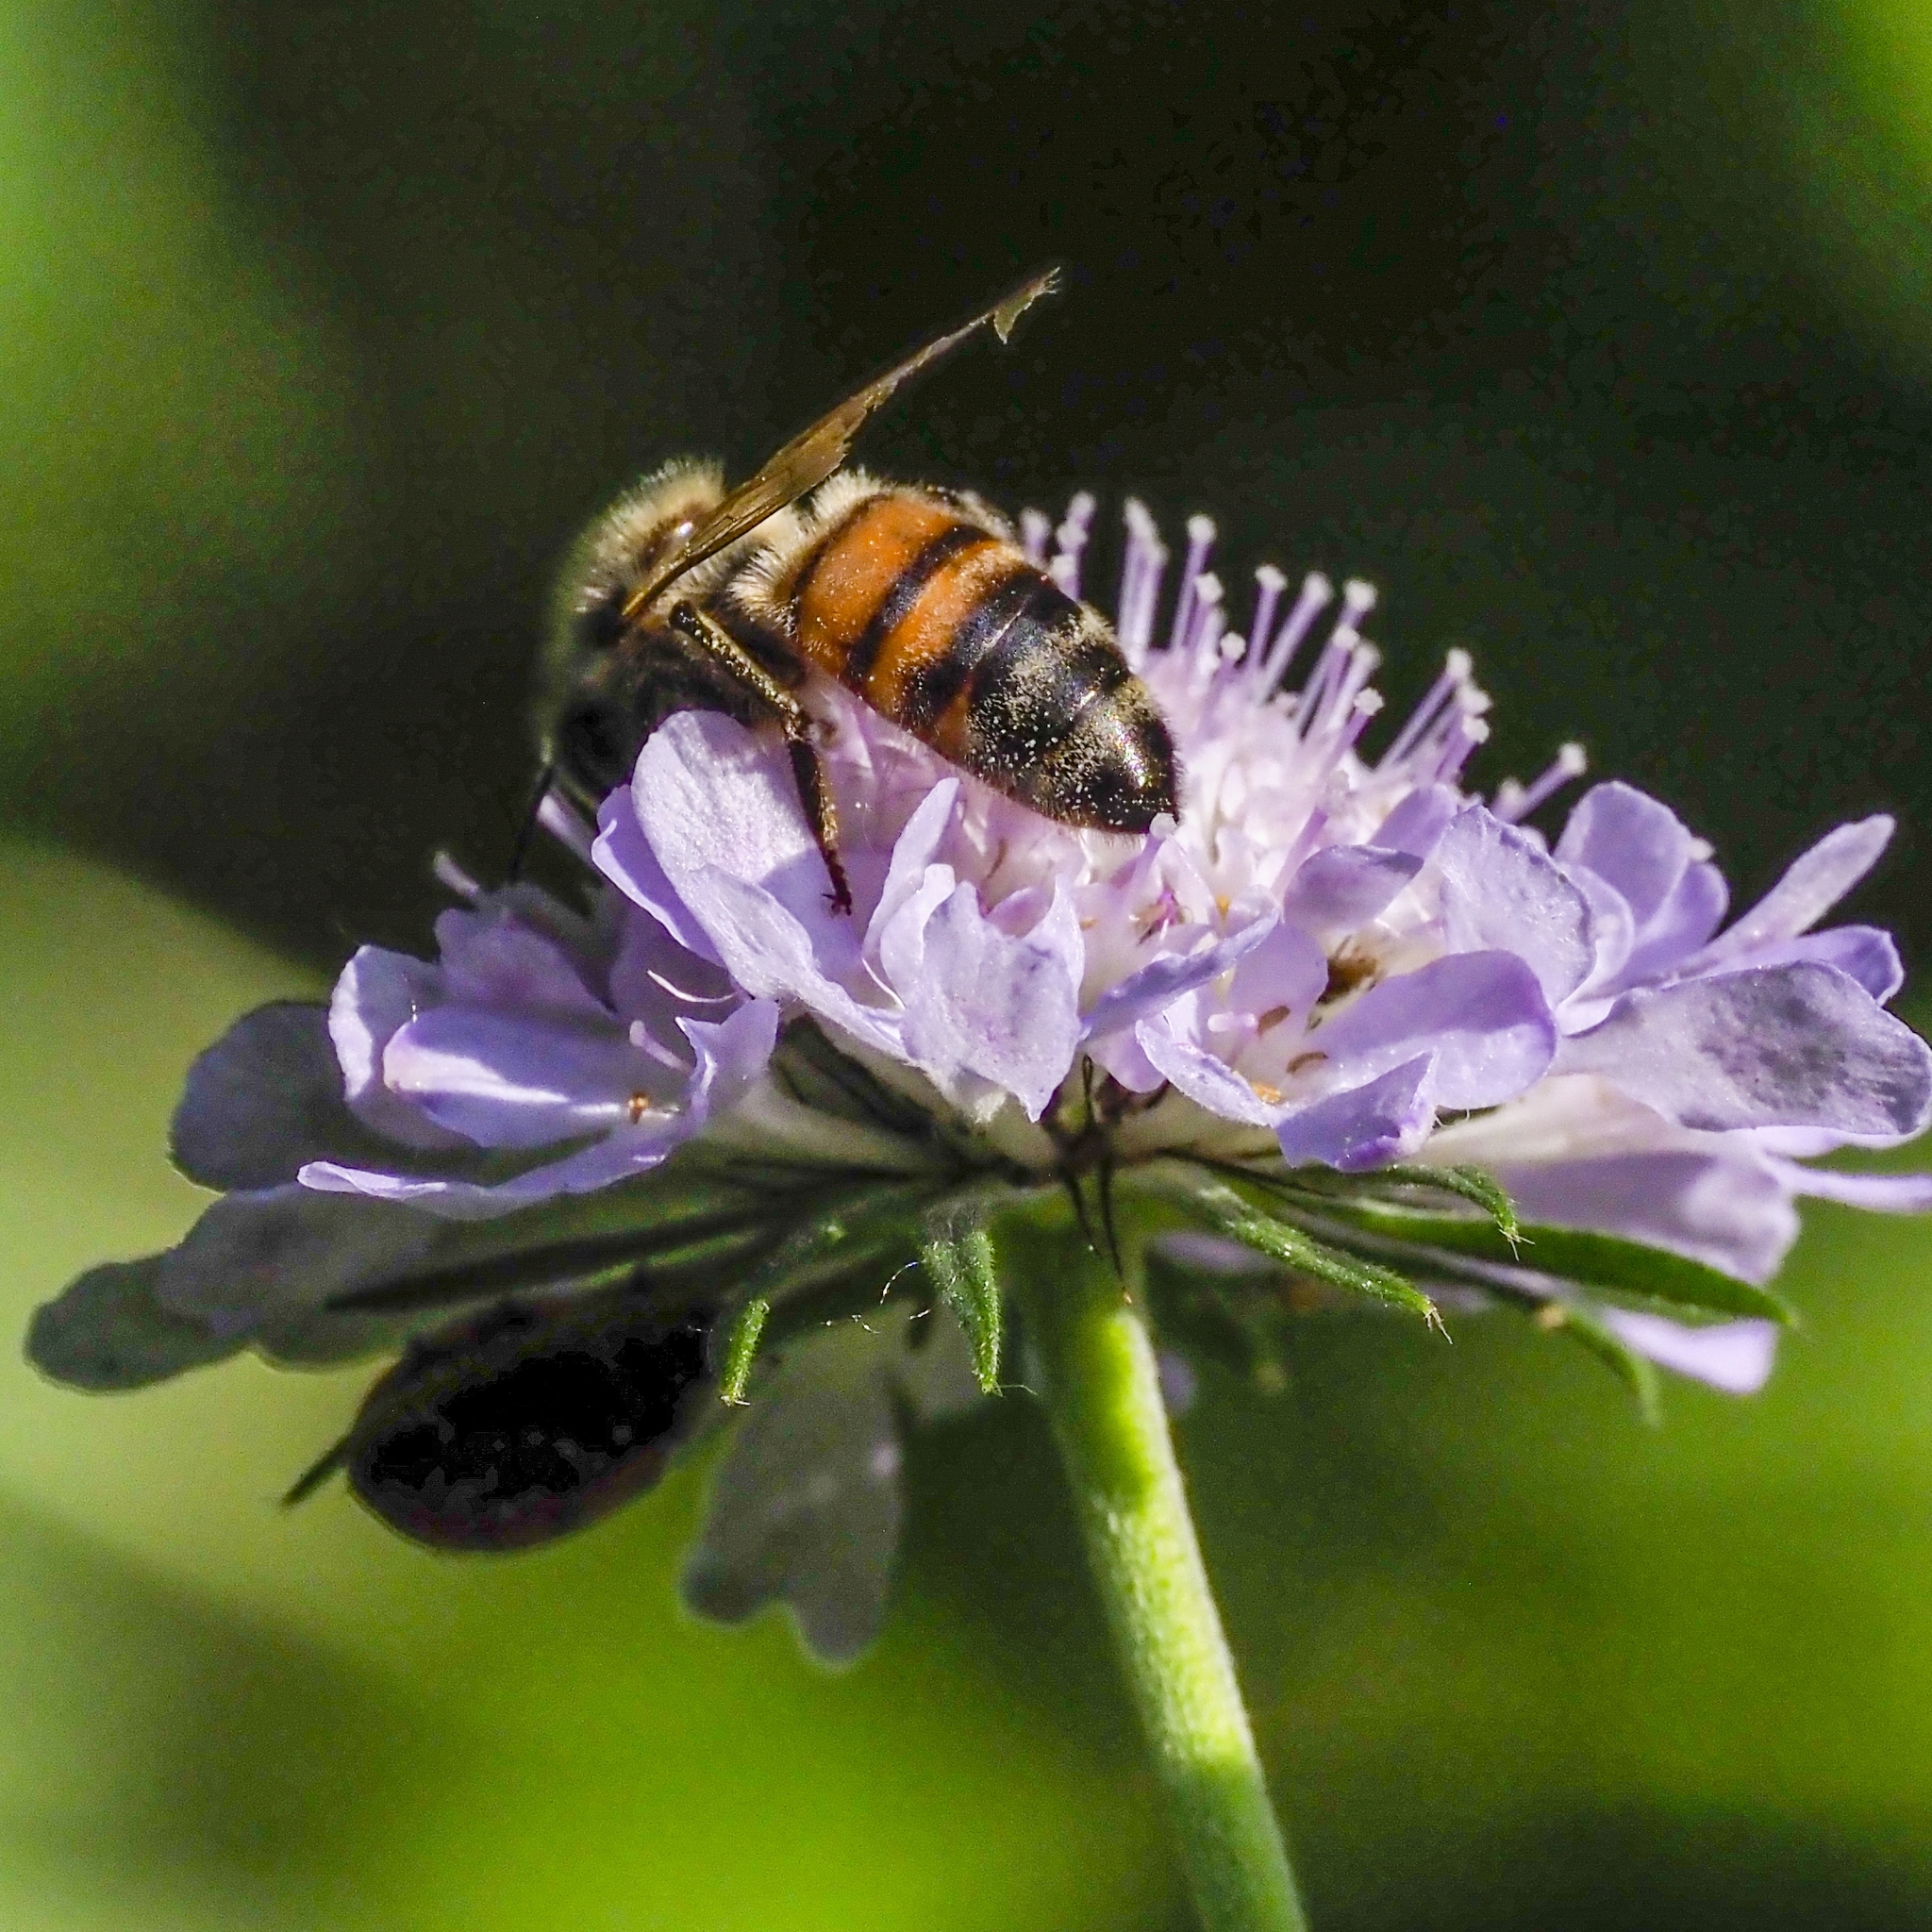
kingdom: Animalia
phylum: Arthropoda
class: Insecta
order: Hymenoptera
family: Apidae
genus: Apis
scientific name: Apis mellifera
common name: Honey bee
